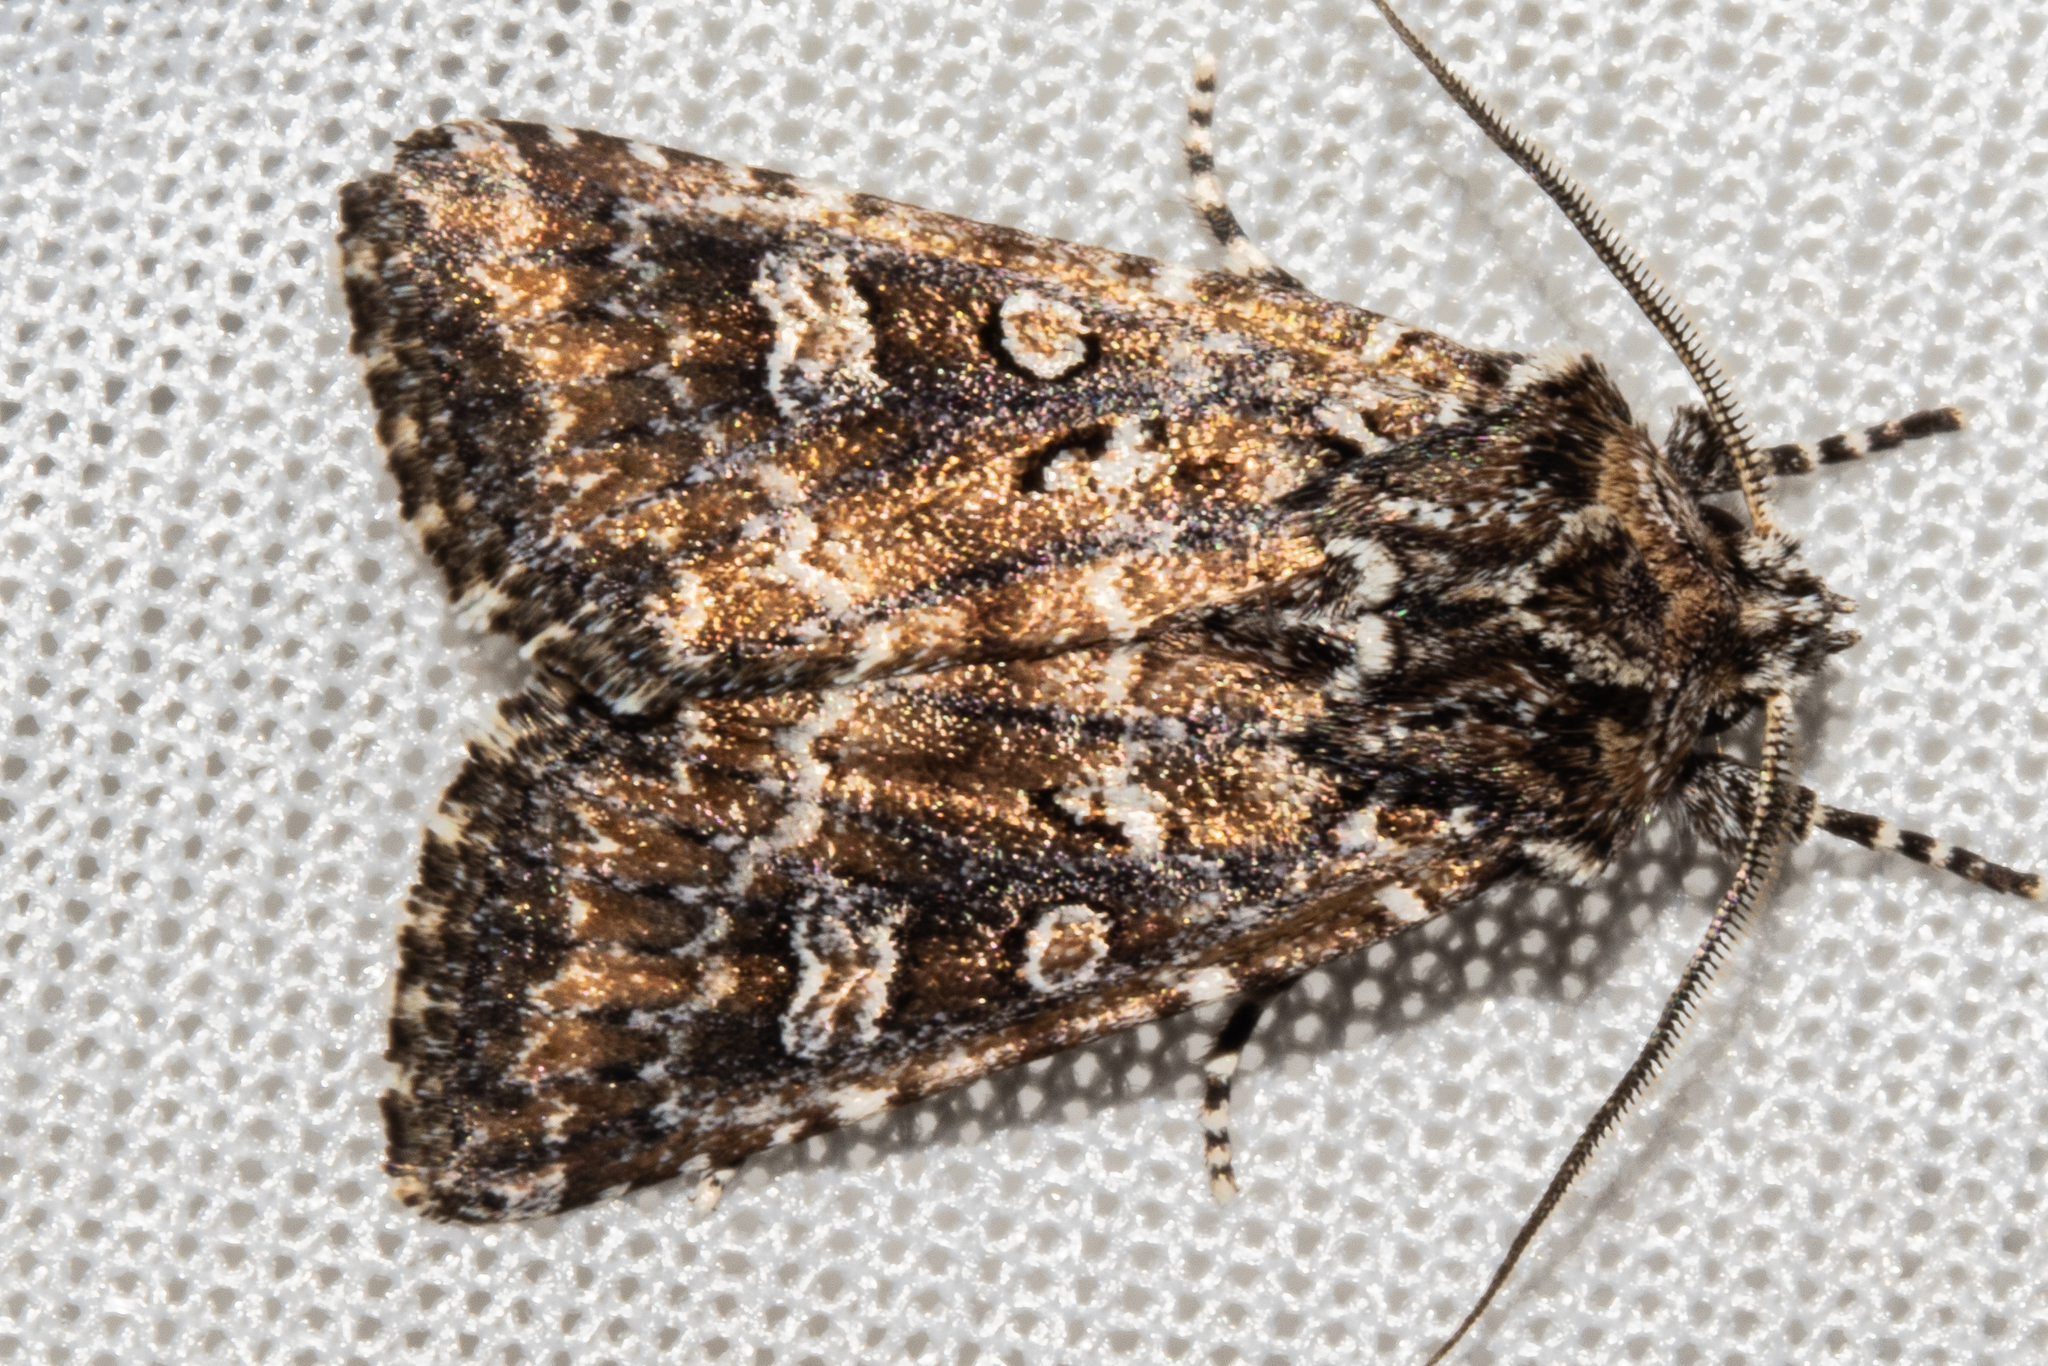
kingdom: Animalia
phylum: Arthropoda
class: Insecta
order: Lepidoptera
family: Noctuidae
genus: Ichneutica
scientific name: Ichneutica lithias
